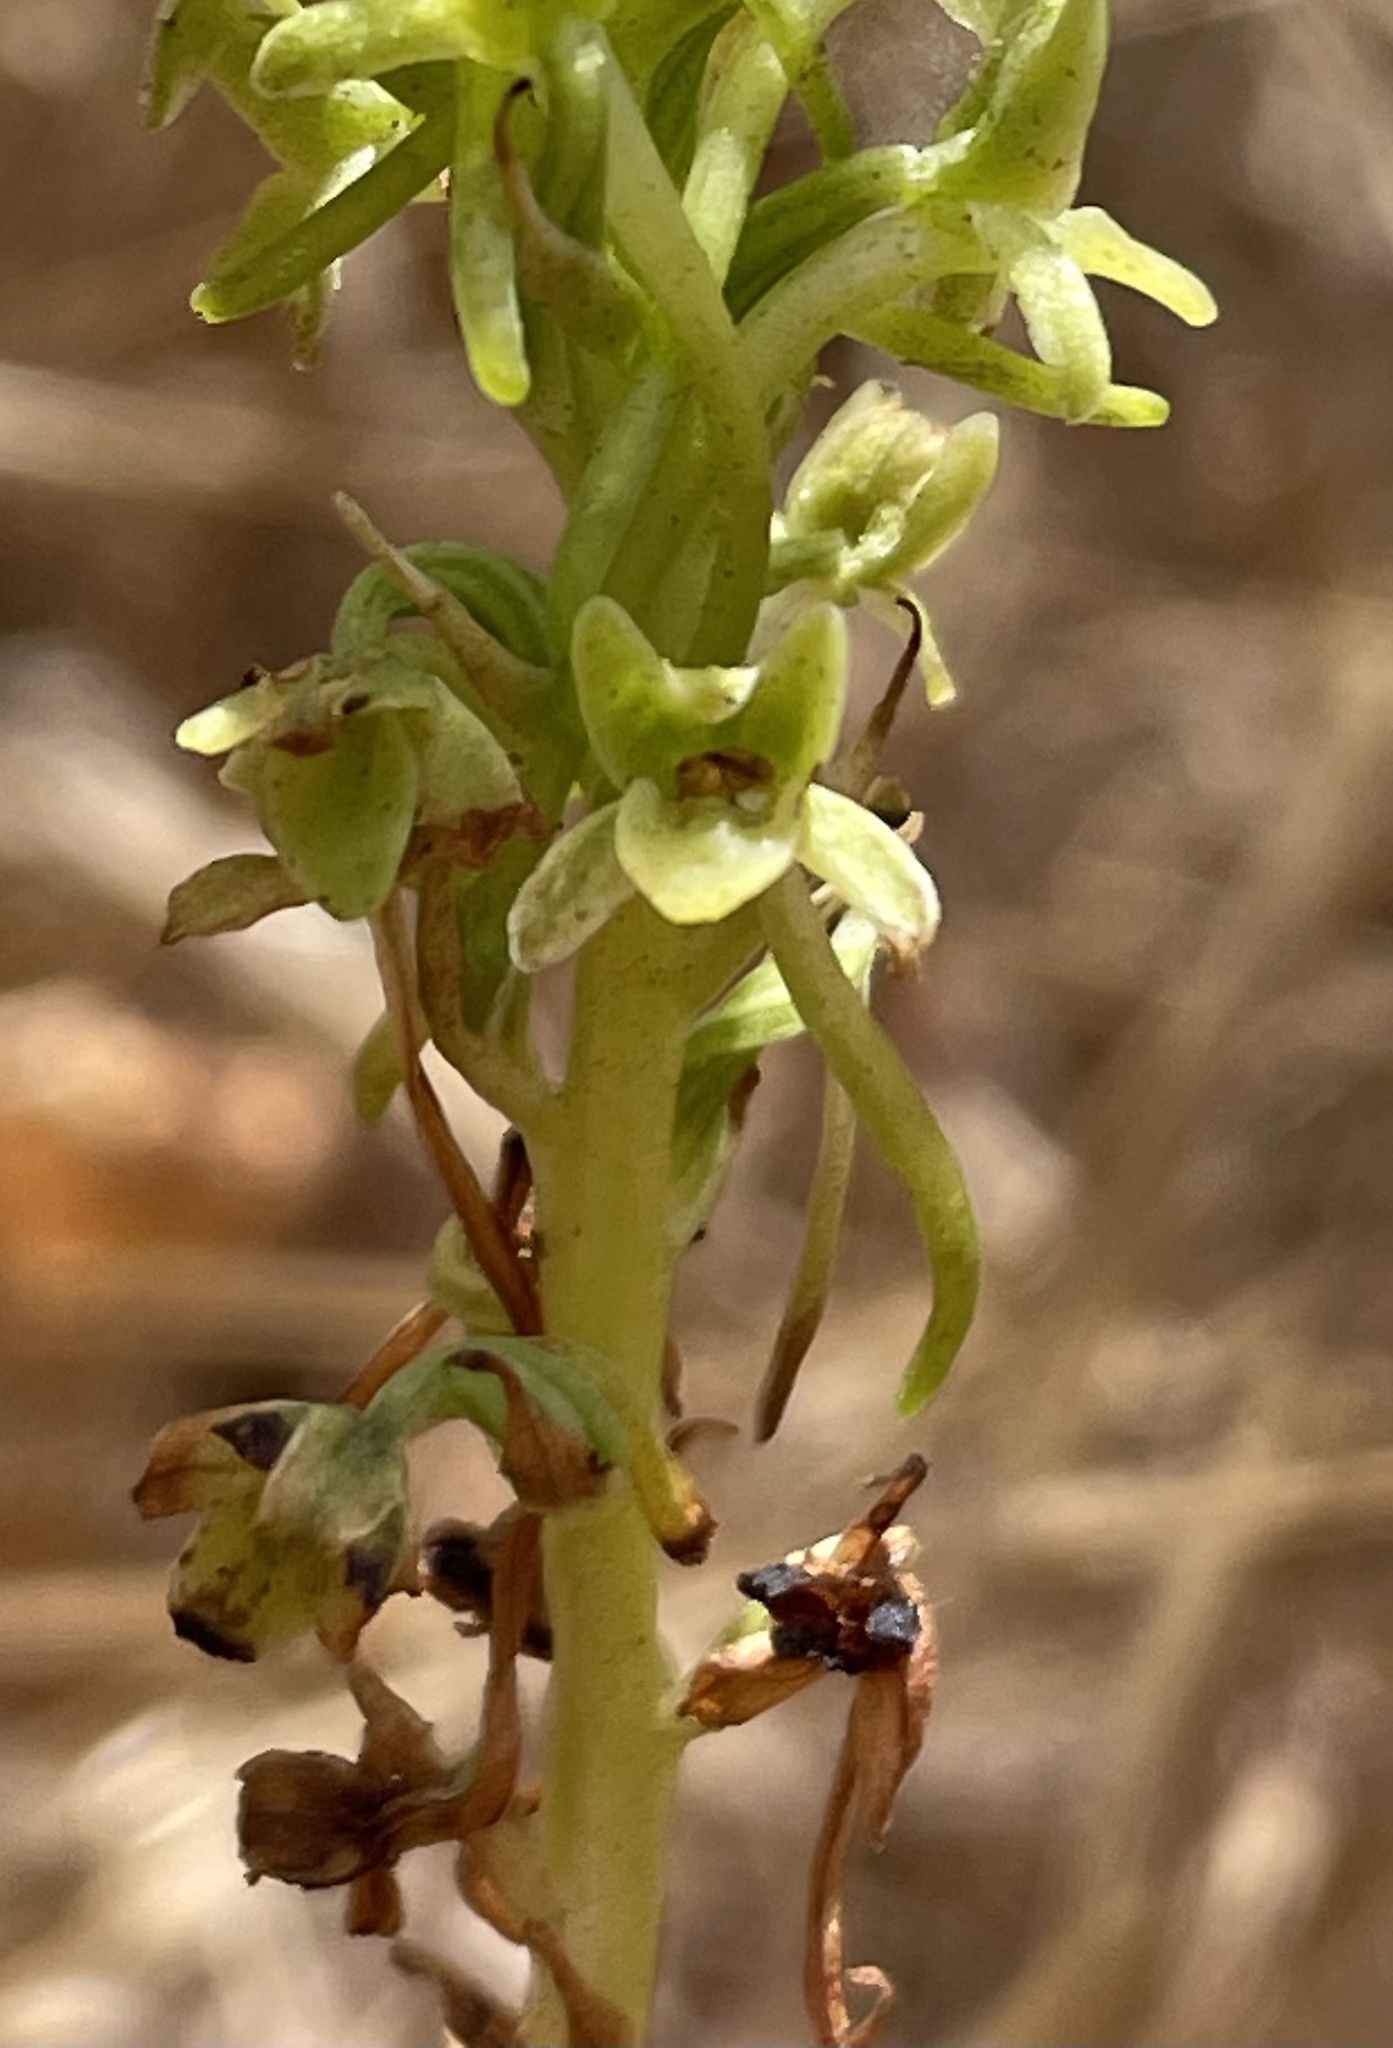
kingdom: Plantae
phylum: Tracheophyta
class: Liliopsida
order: Asparagales
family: Orchidaceae
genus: Platanthera
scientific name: Platanthera michaelii
